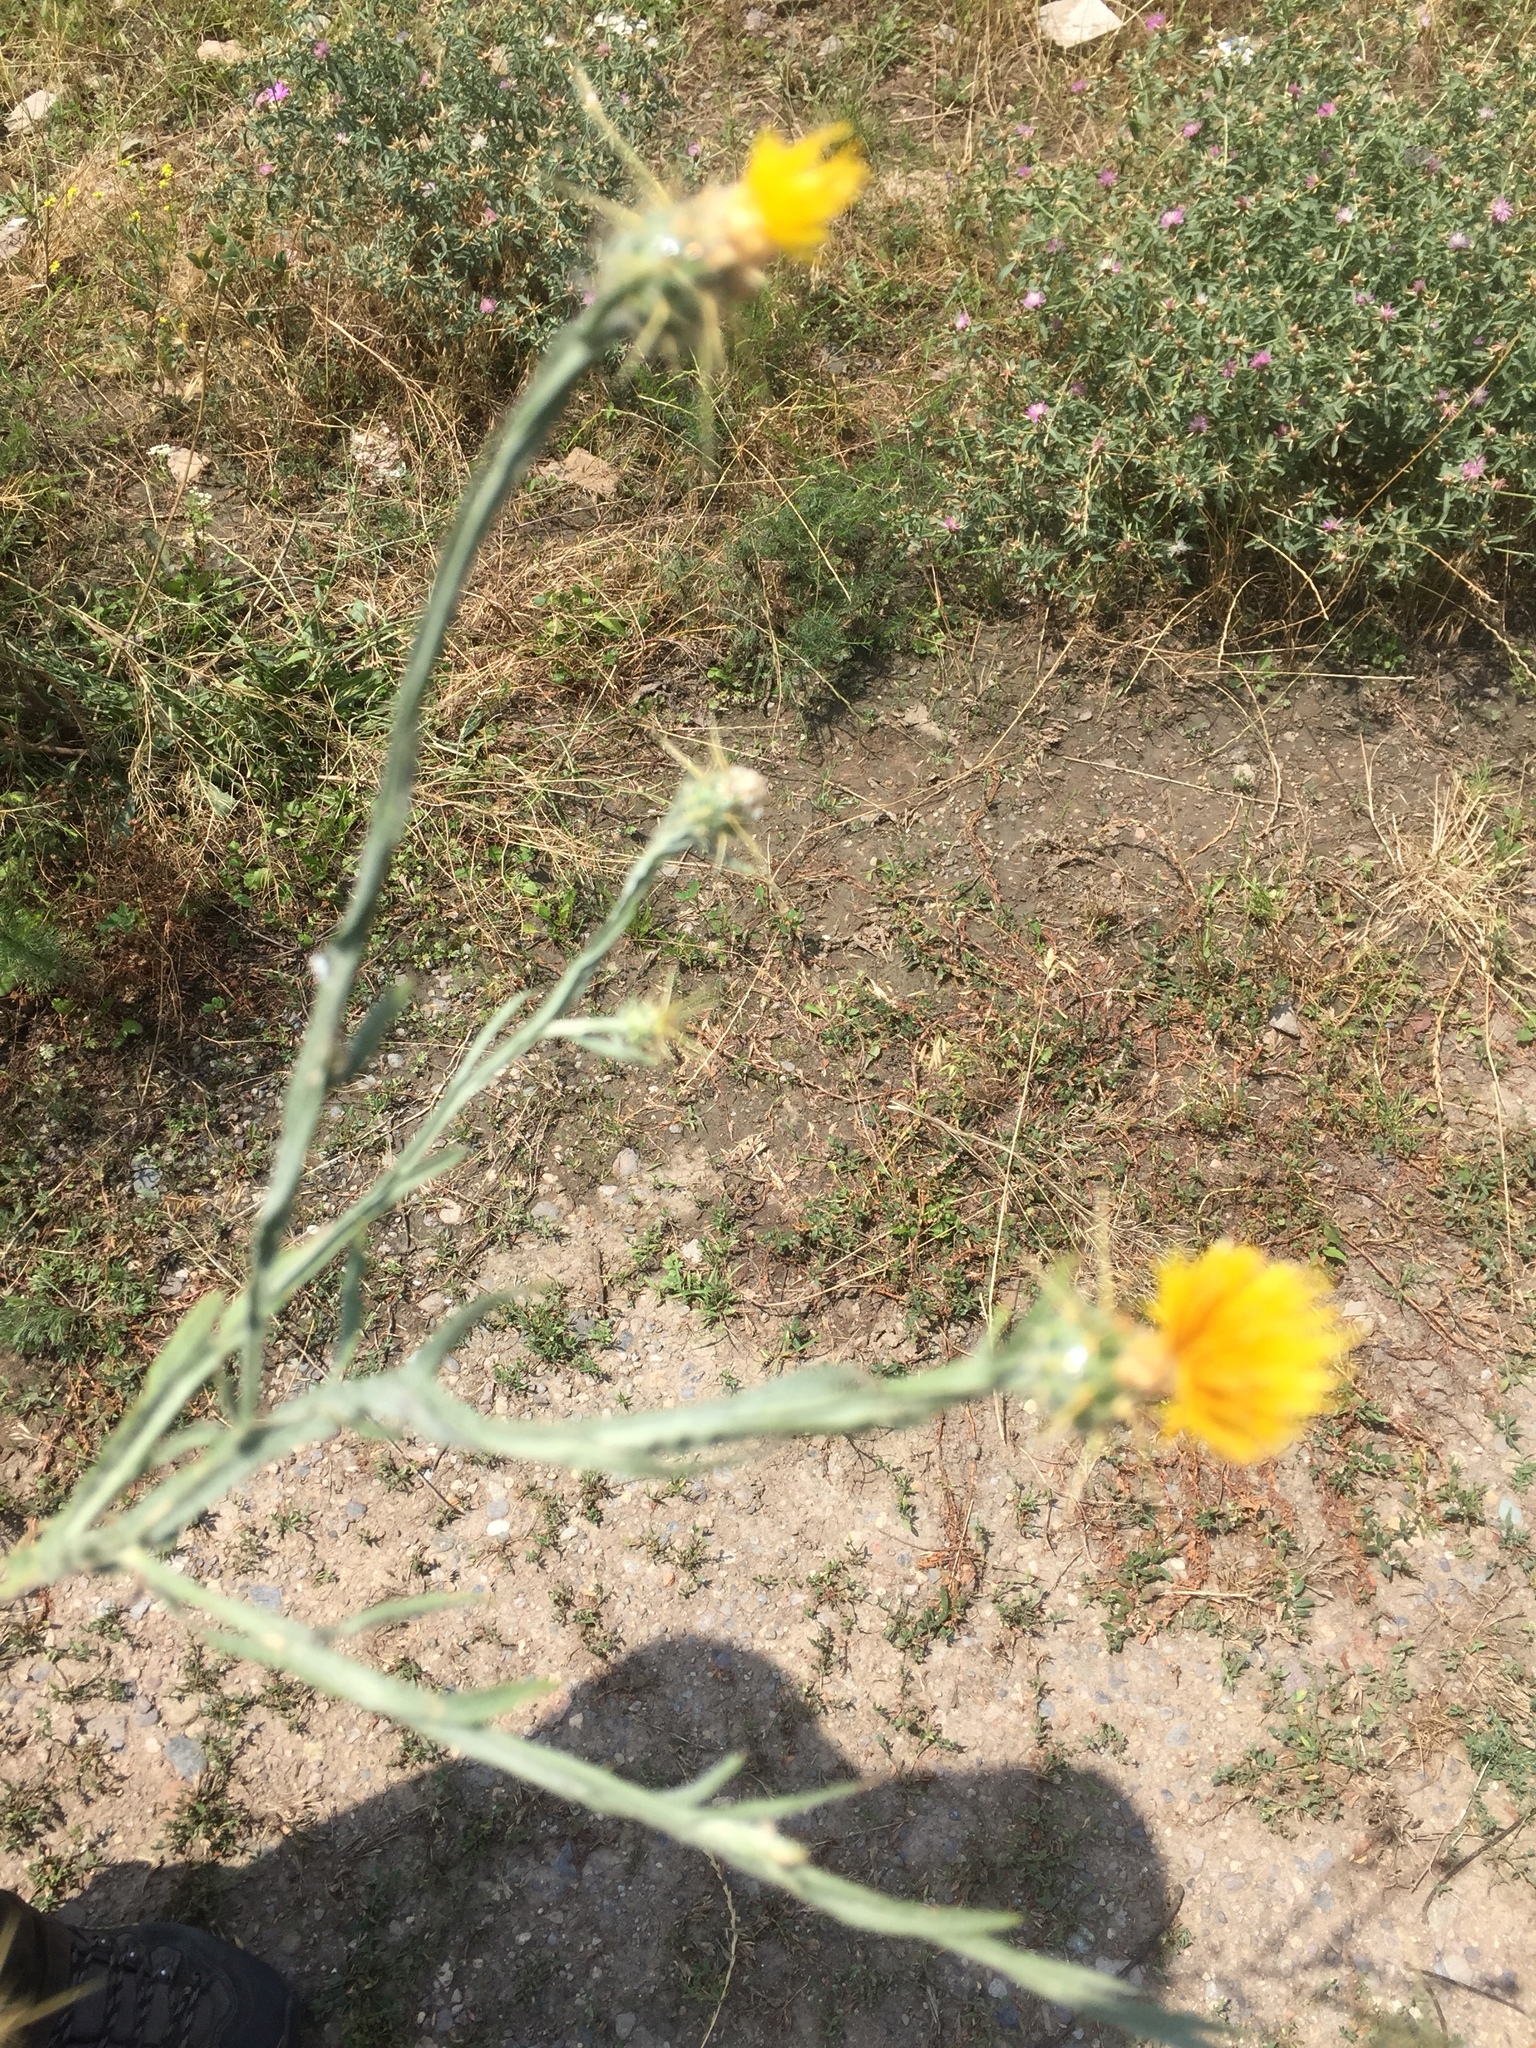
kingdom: Plantae
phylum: Tracheophyta
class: Magnoliopsida
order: Asterales
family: Asteraceae
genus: Centaurea
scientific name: Centaurea solstitialis
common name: Yellow star-thistle
